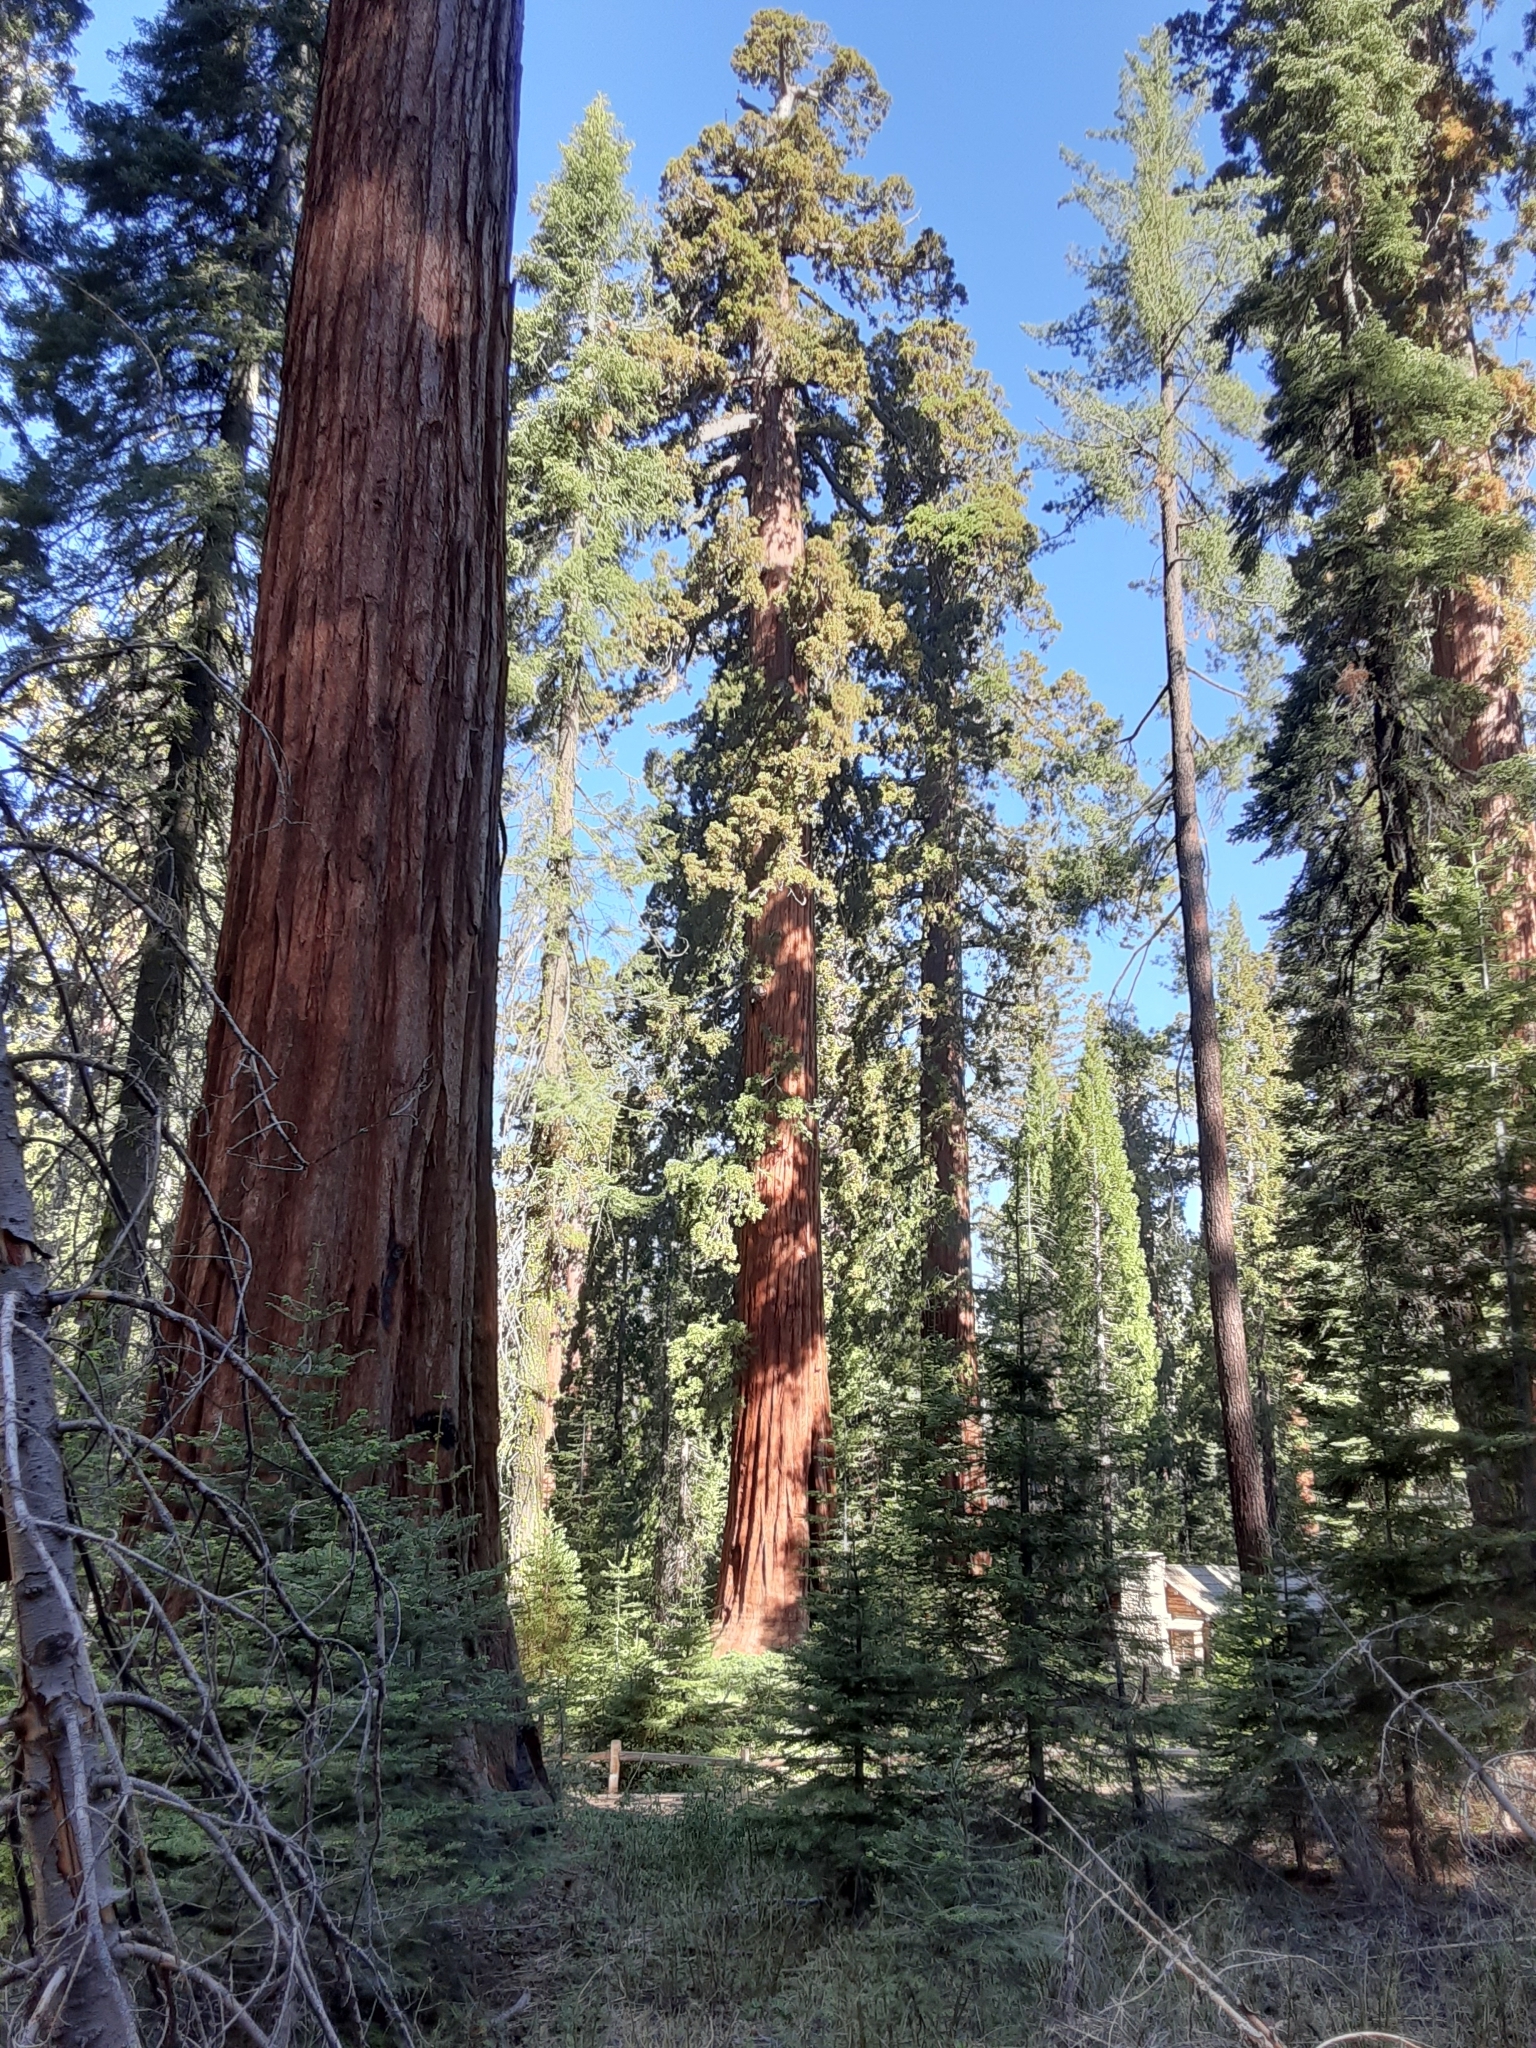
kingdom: Plantae
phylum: Tracheophyta
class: Pinopsida
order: Pinales
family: Cupressaceae
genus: Sequoiadendron
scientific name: Sequoiadendron giganteum
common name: Wellingtonia
